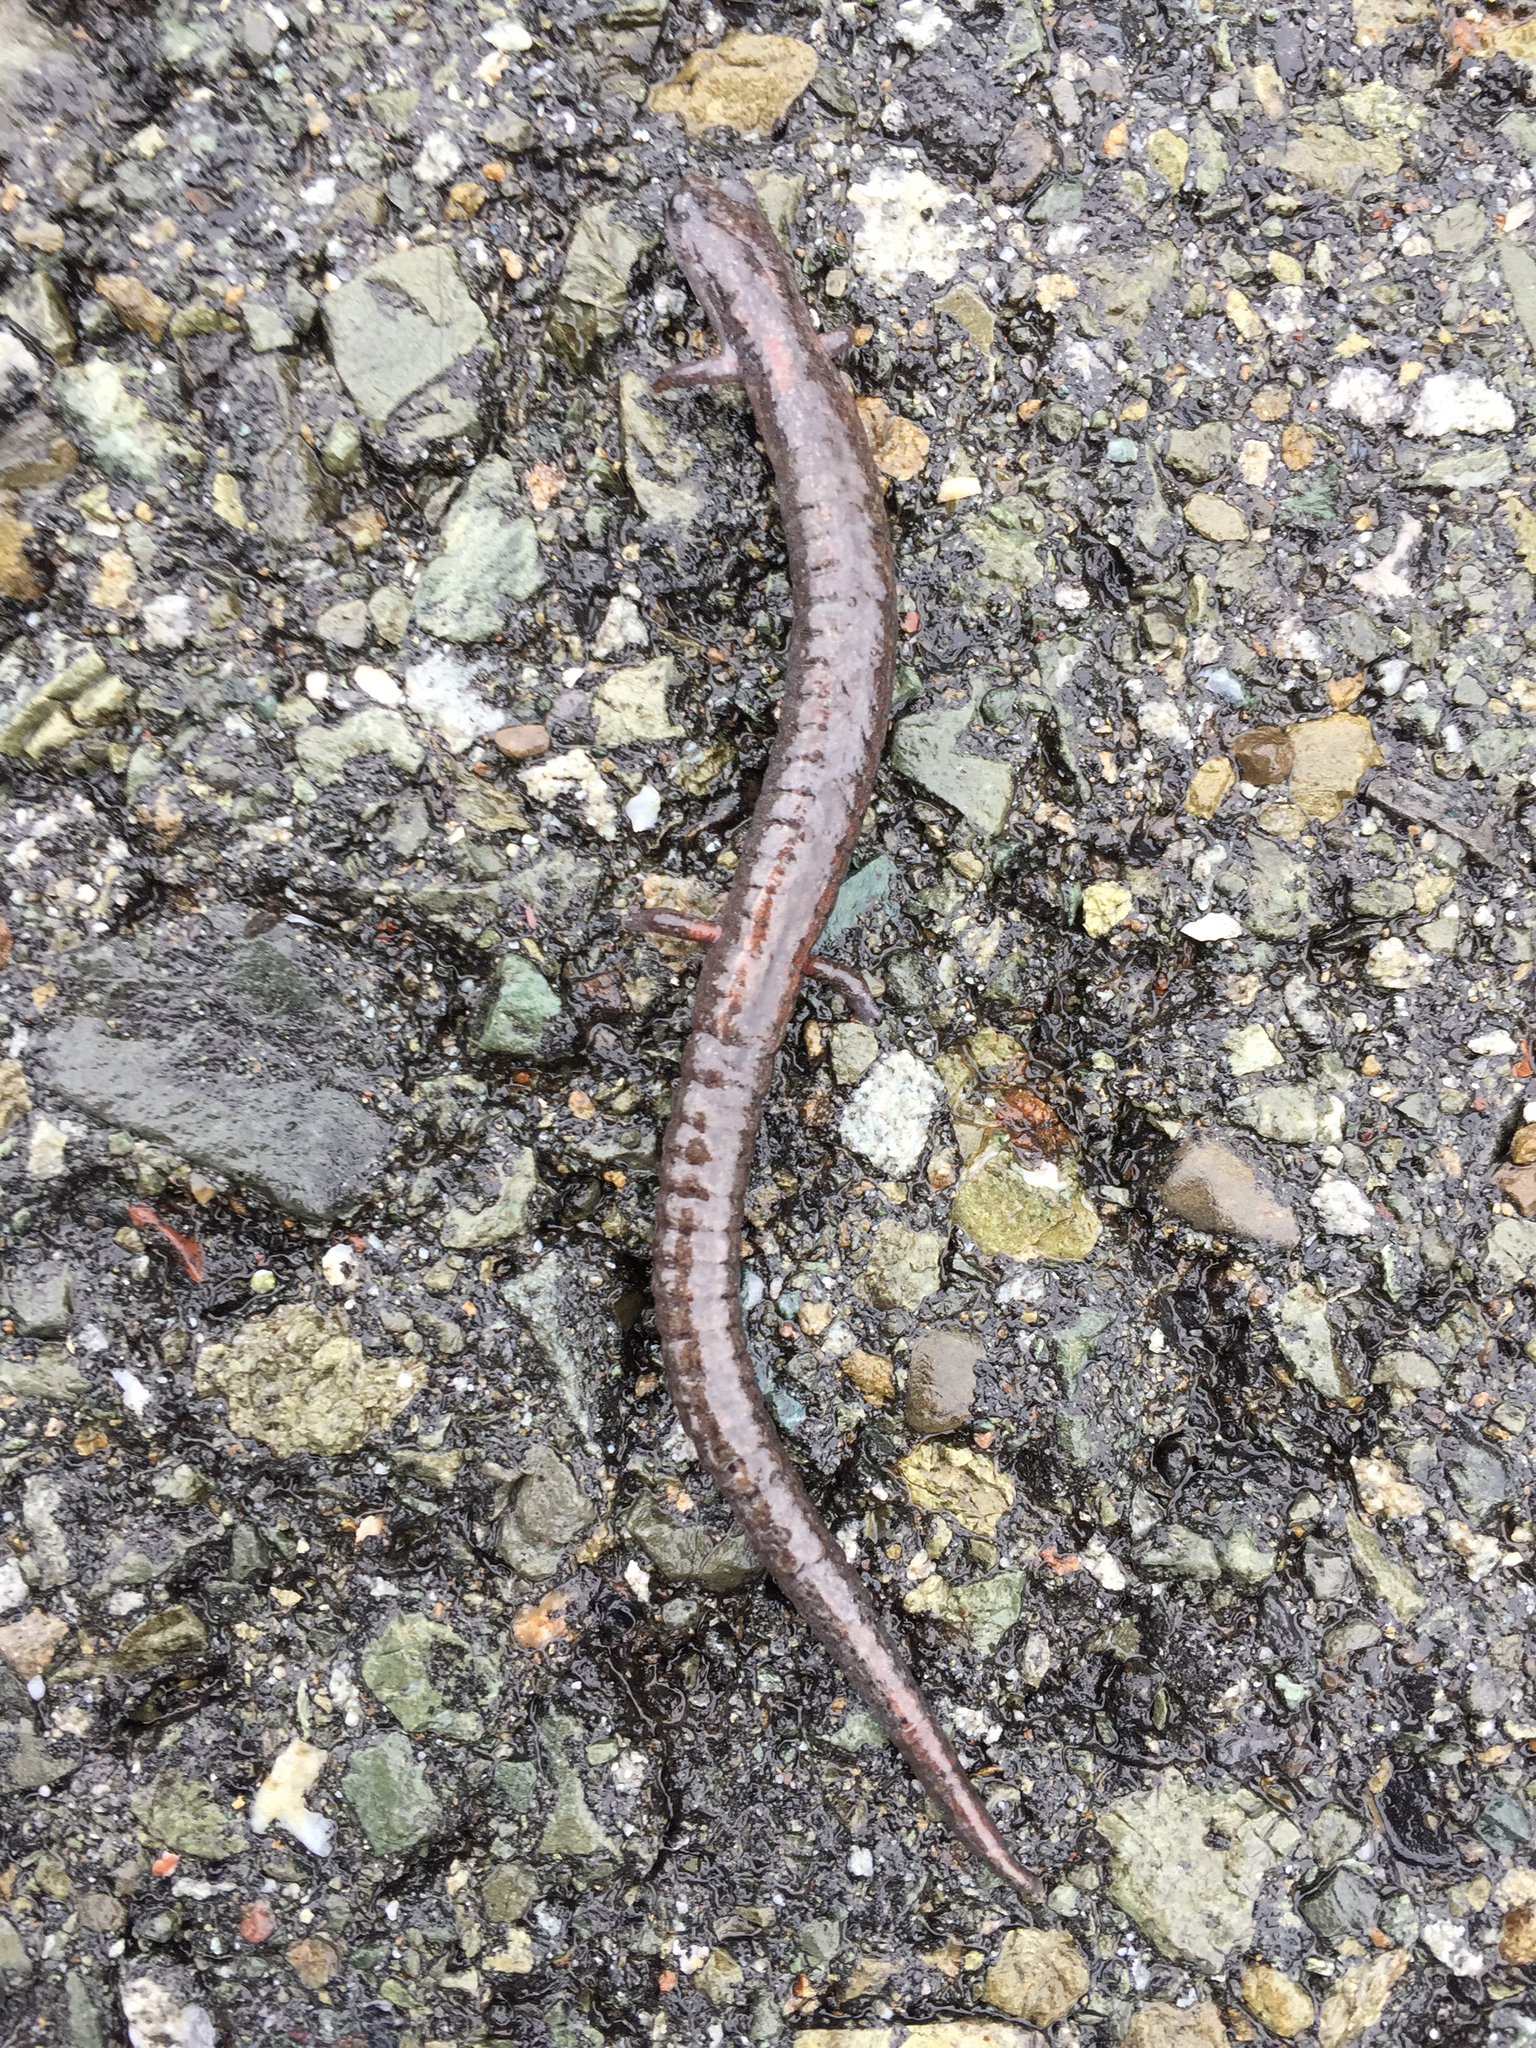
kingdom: Animalia
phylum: Chordata
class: Amphibia
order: Caudata
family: Plethodontidae
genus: Batrachoseps
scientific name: Batrachoseps attenuatus
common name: California slender salamander
